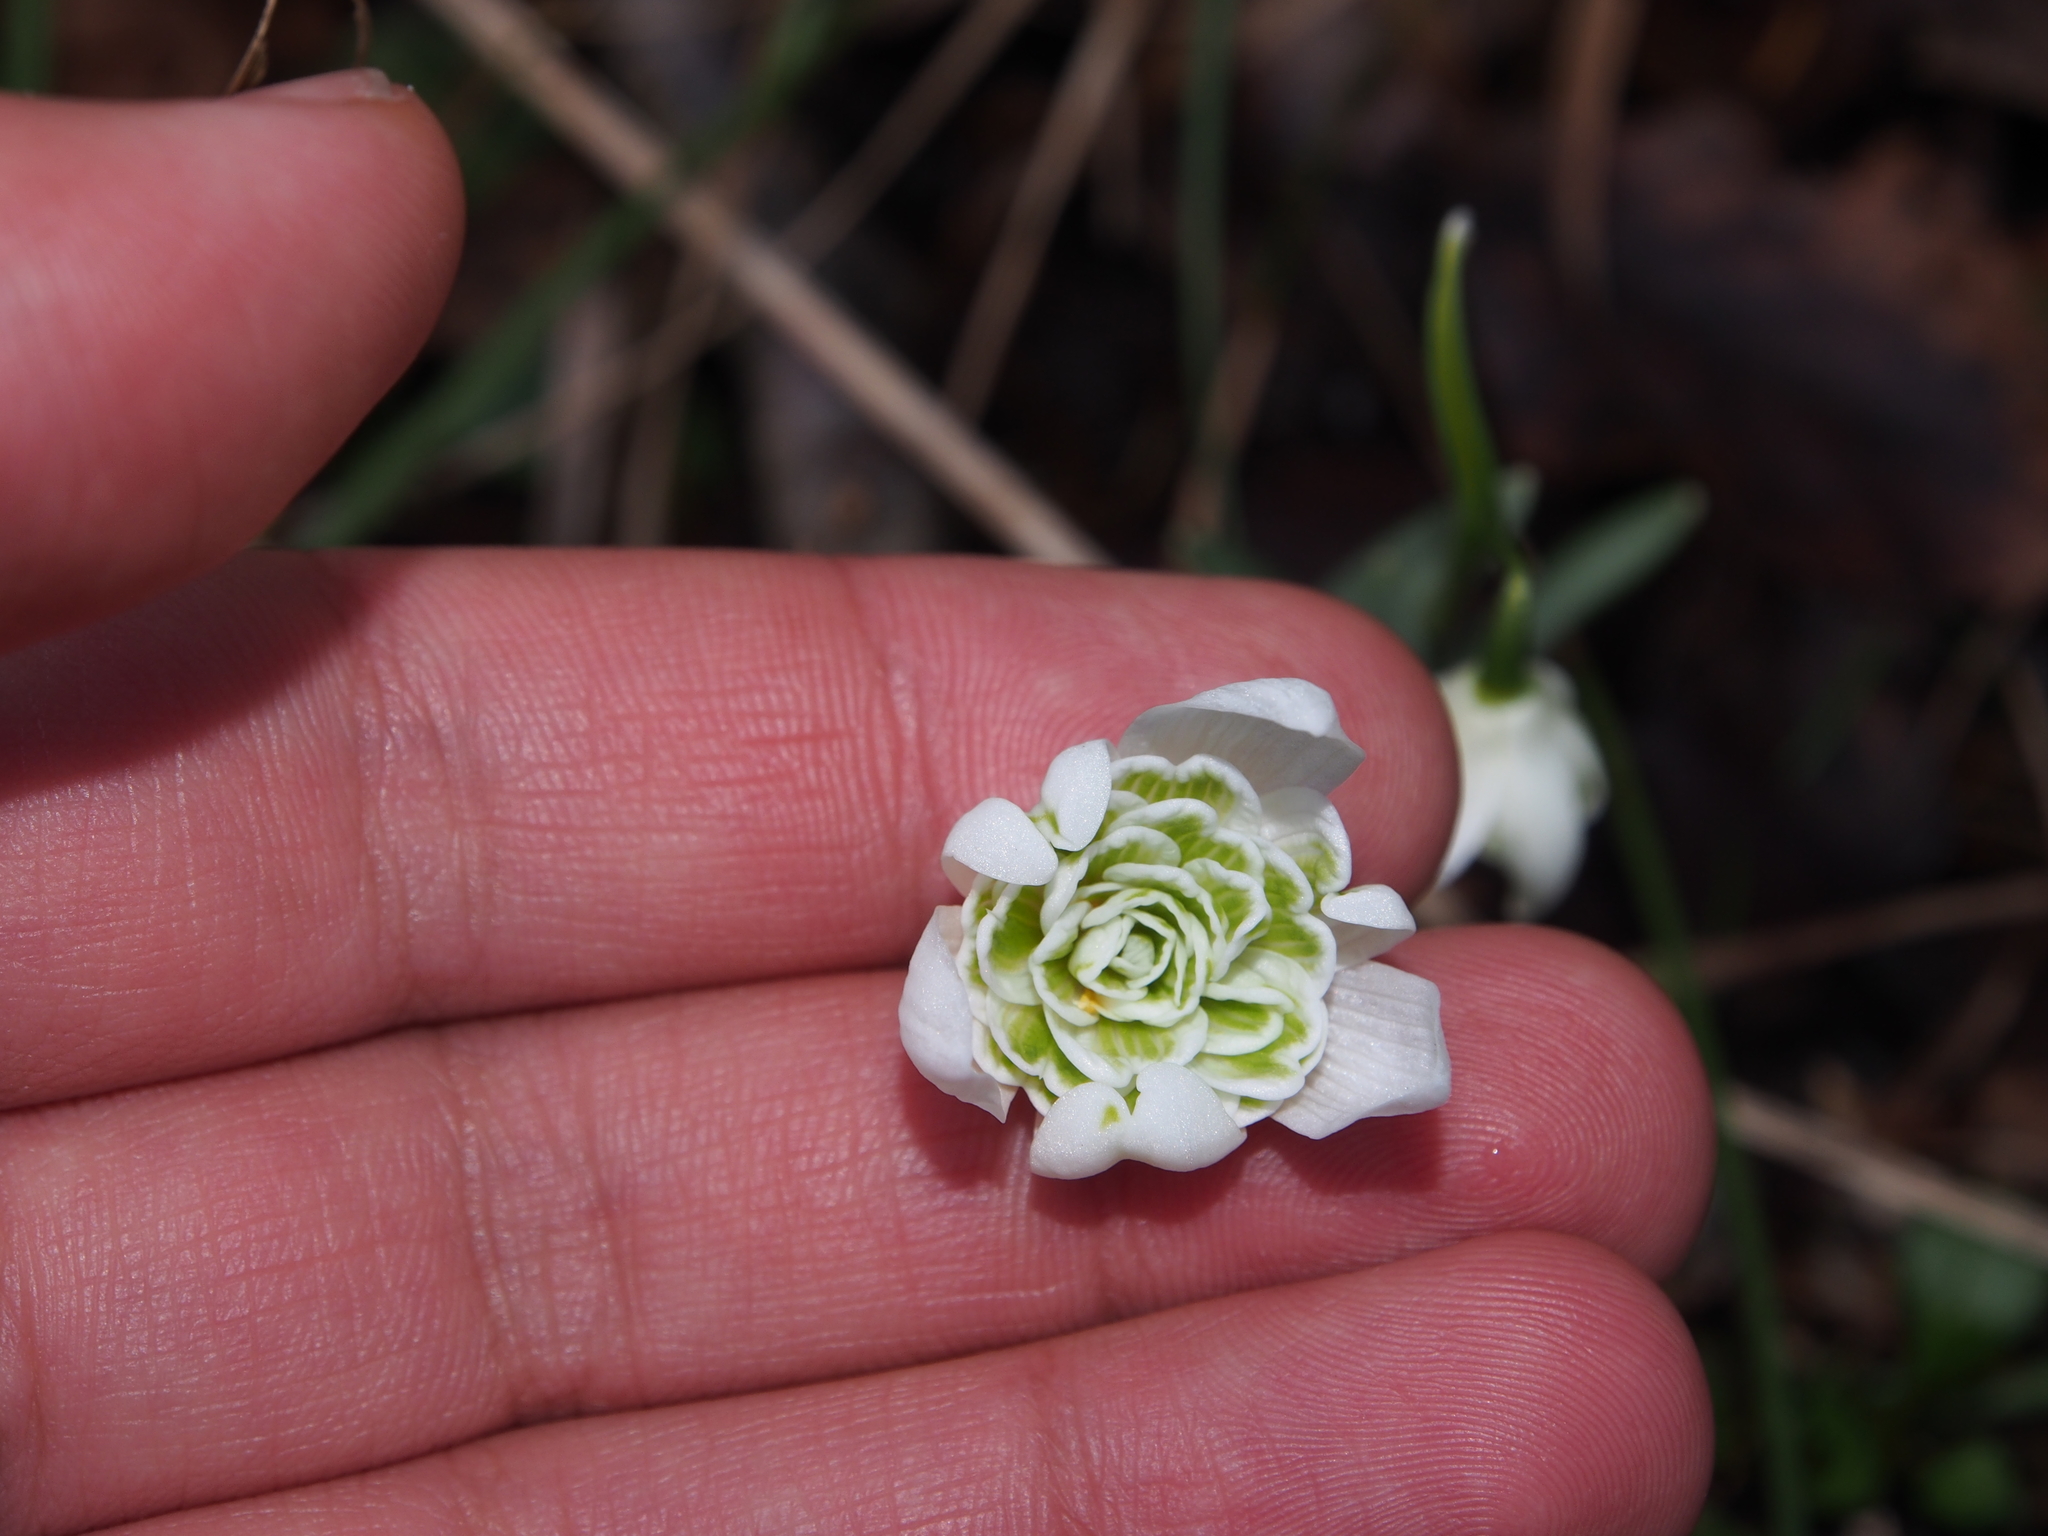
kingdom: Plantae
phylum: Tracheophyta
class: Liliopsida
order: Asparagales
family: Amaryllidaceae
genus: Galanthus
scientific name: Galanthus nivalis
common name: Snowdrop
